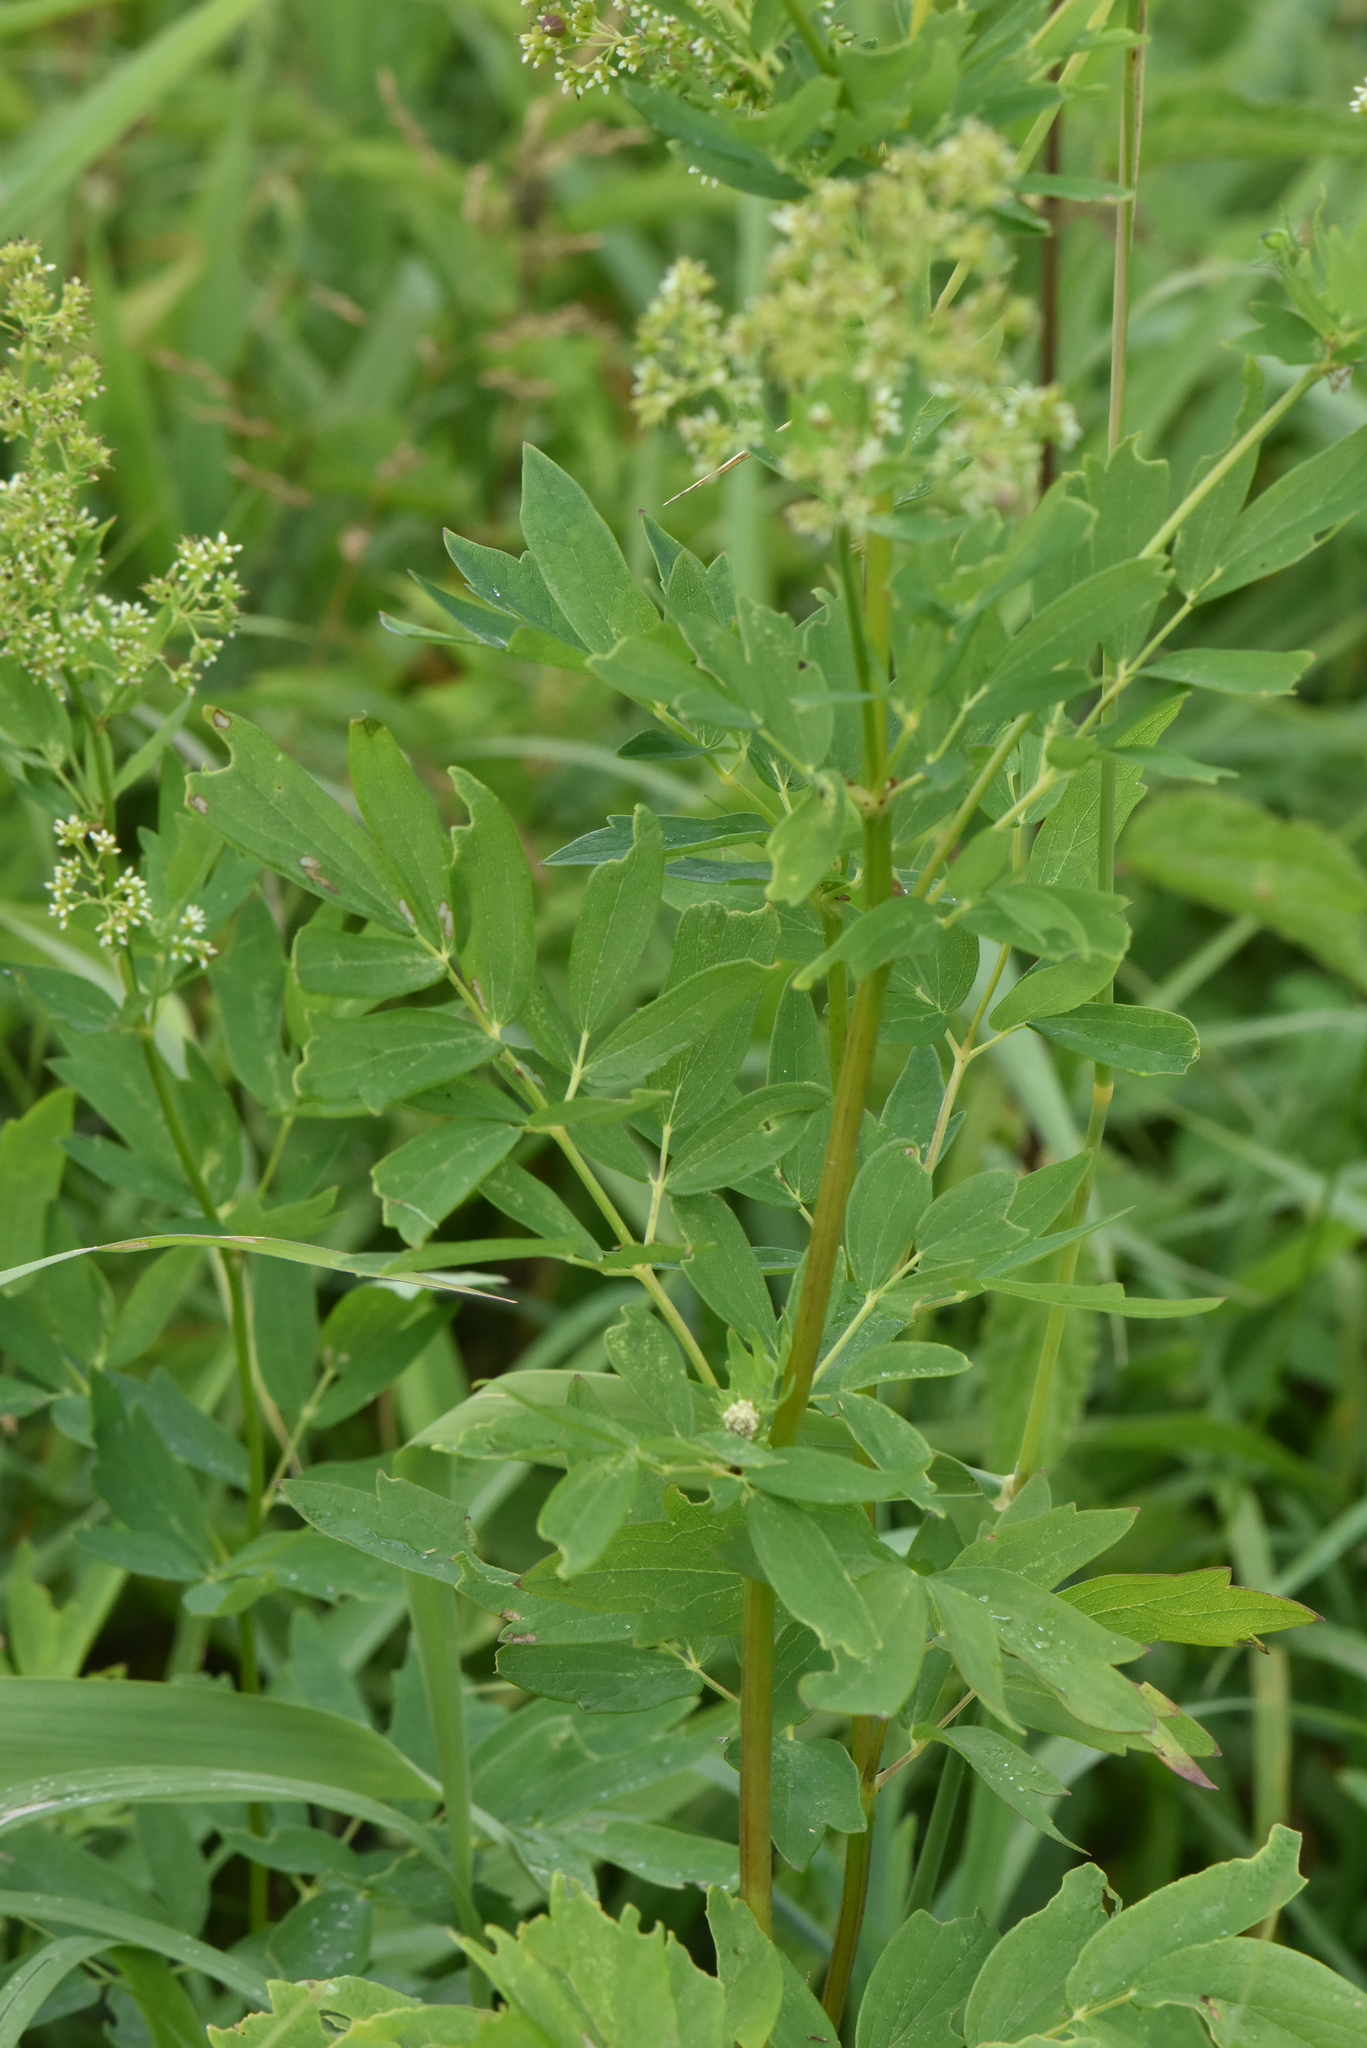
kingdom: Plantae
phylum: Tracheophyta
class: Magnoliopsida
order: Ranunculales
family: Ranunculaceae
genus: Thalictrum
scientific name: Thalictrum flavum
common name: Common meadow-rue
